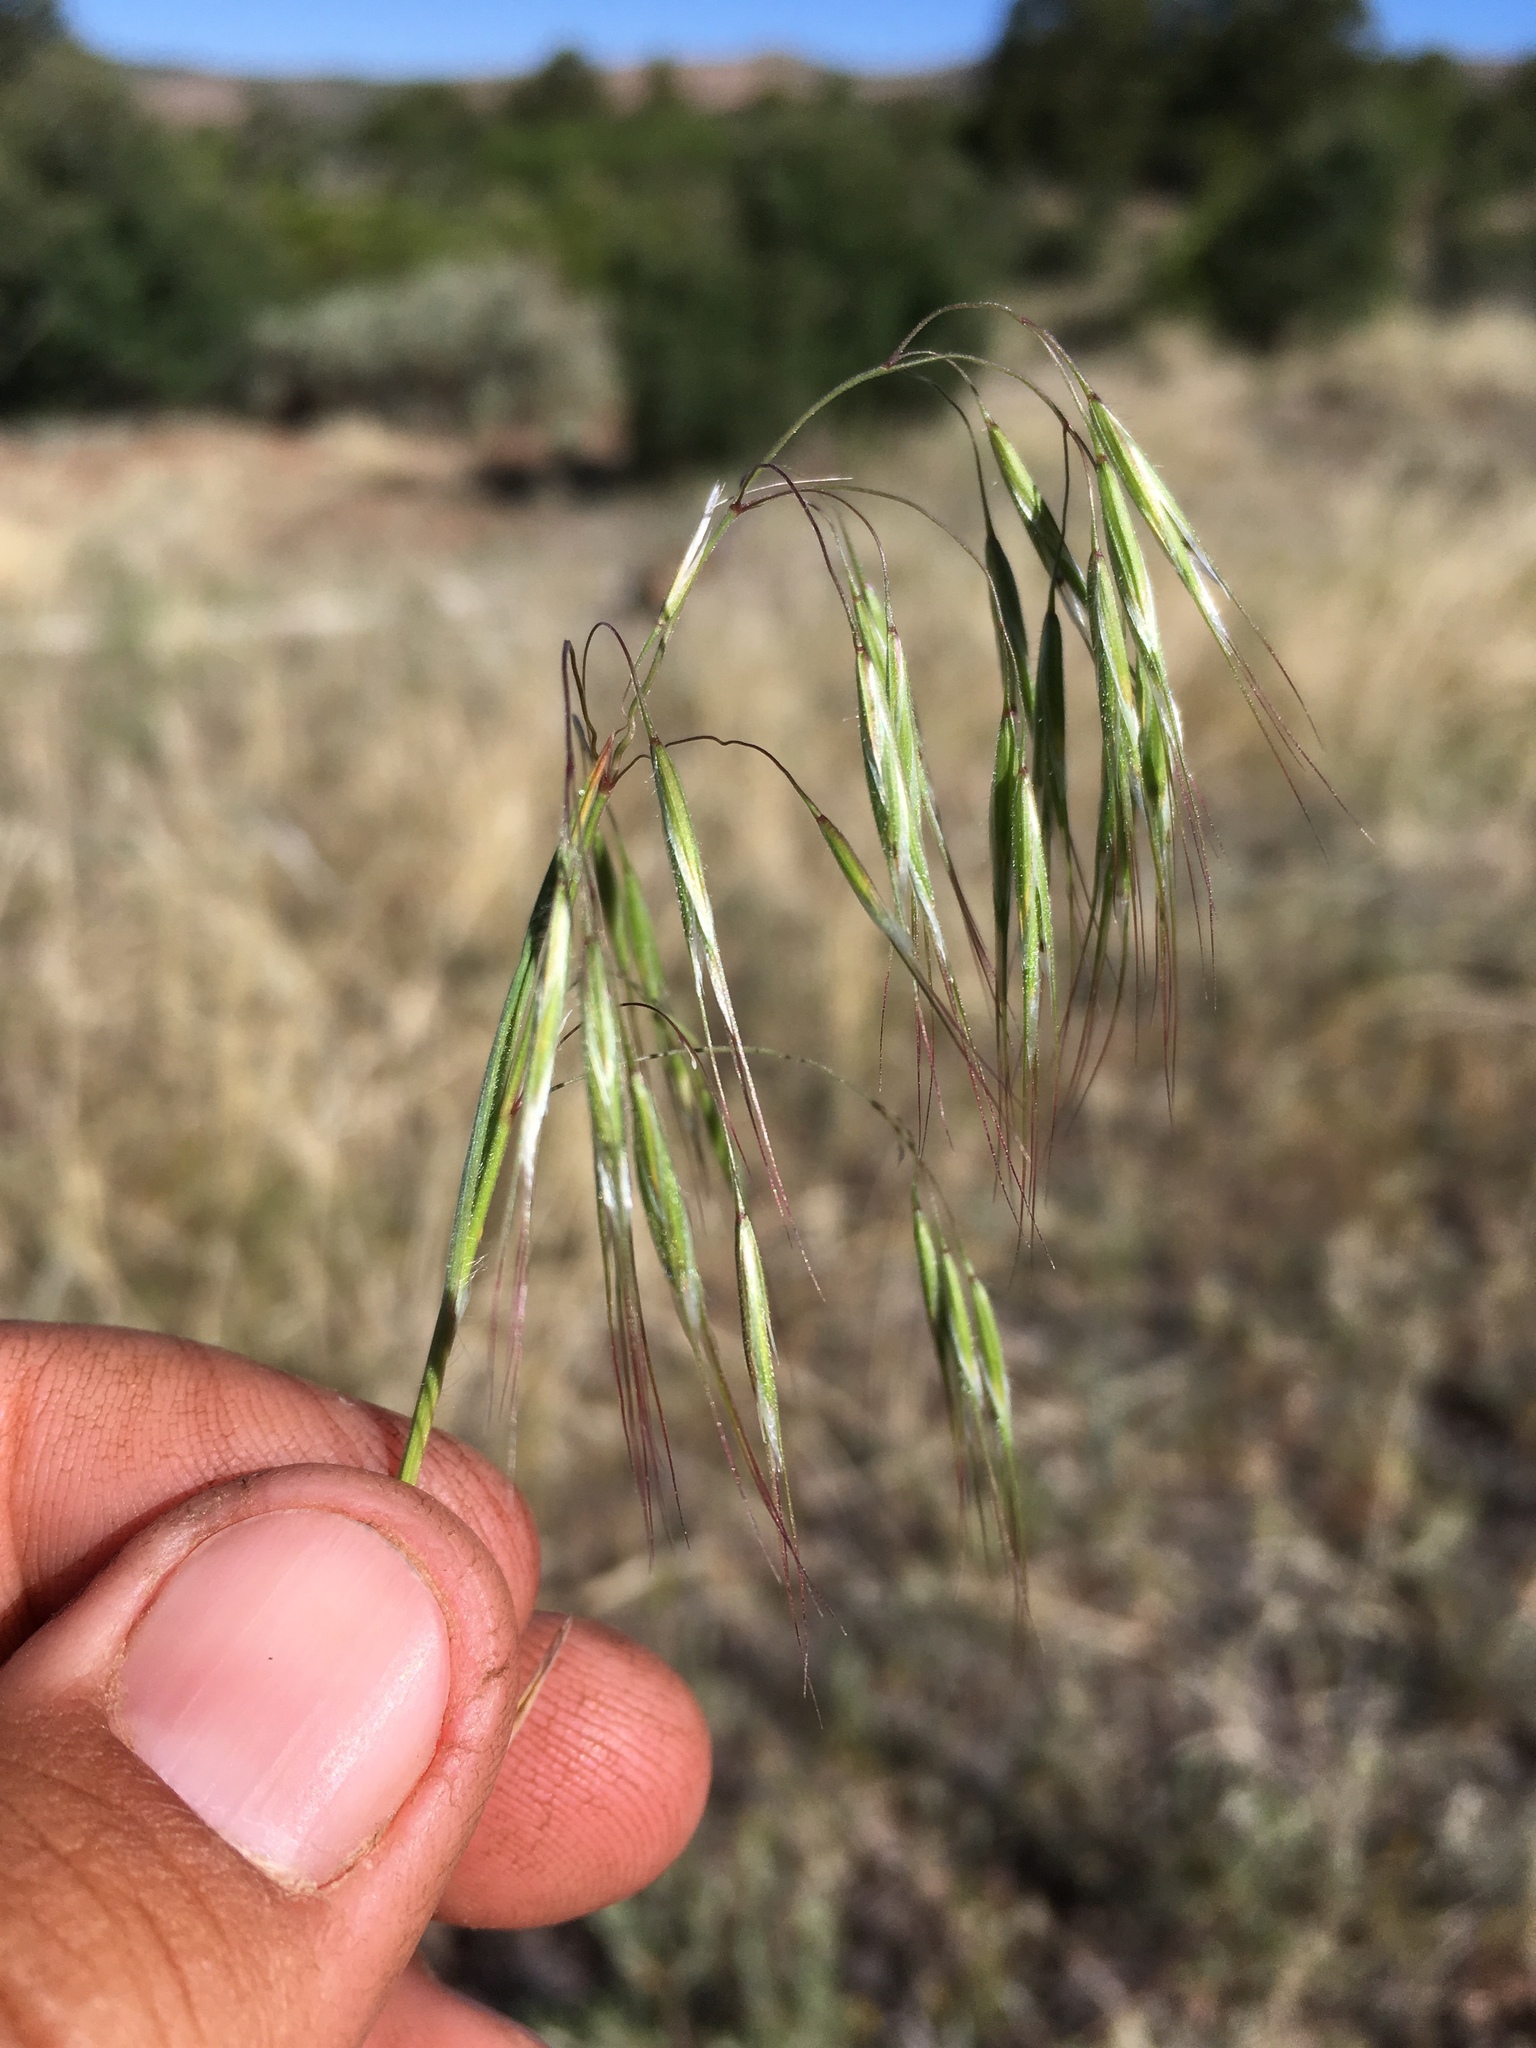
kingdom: Plantae
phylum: Tracheophyta
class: Liliopsida
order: Poales
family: Poaceae
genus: Bromus
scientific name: Bromus tectorum
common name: Cheatgrass
